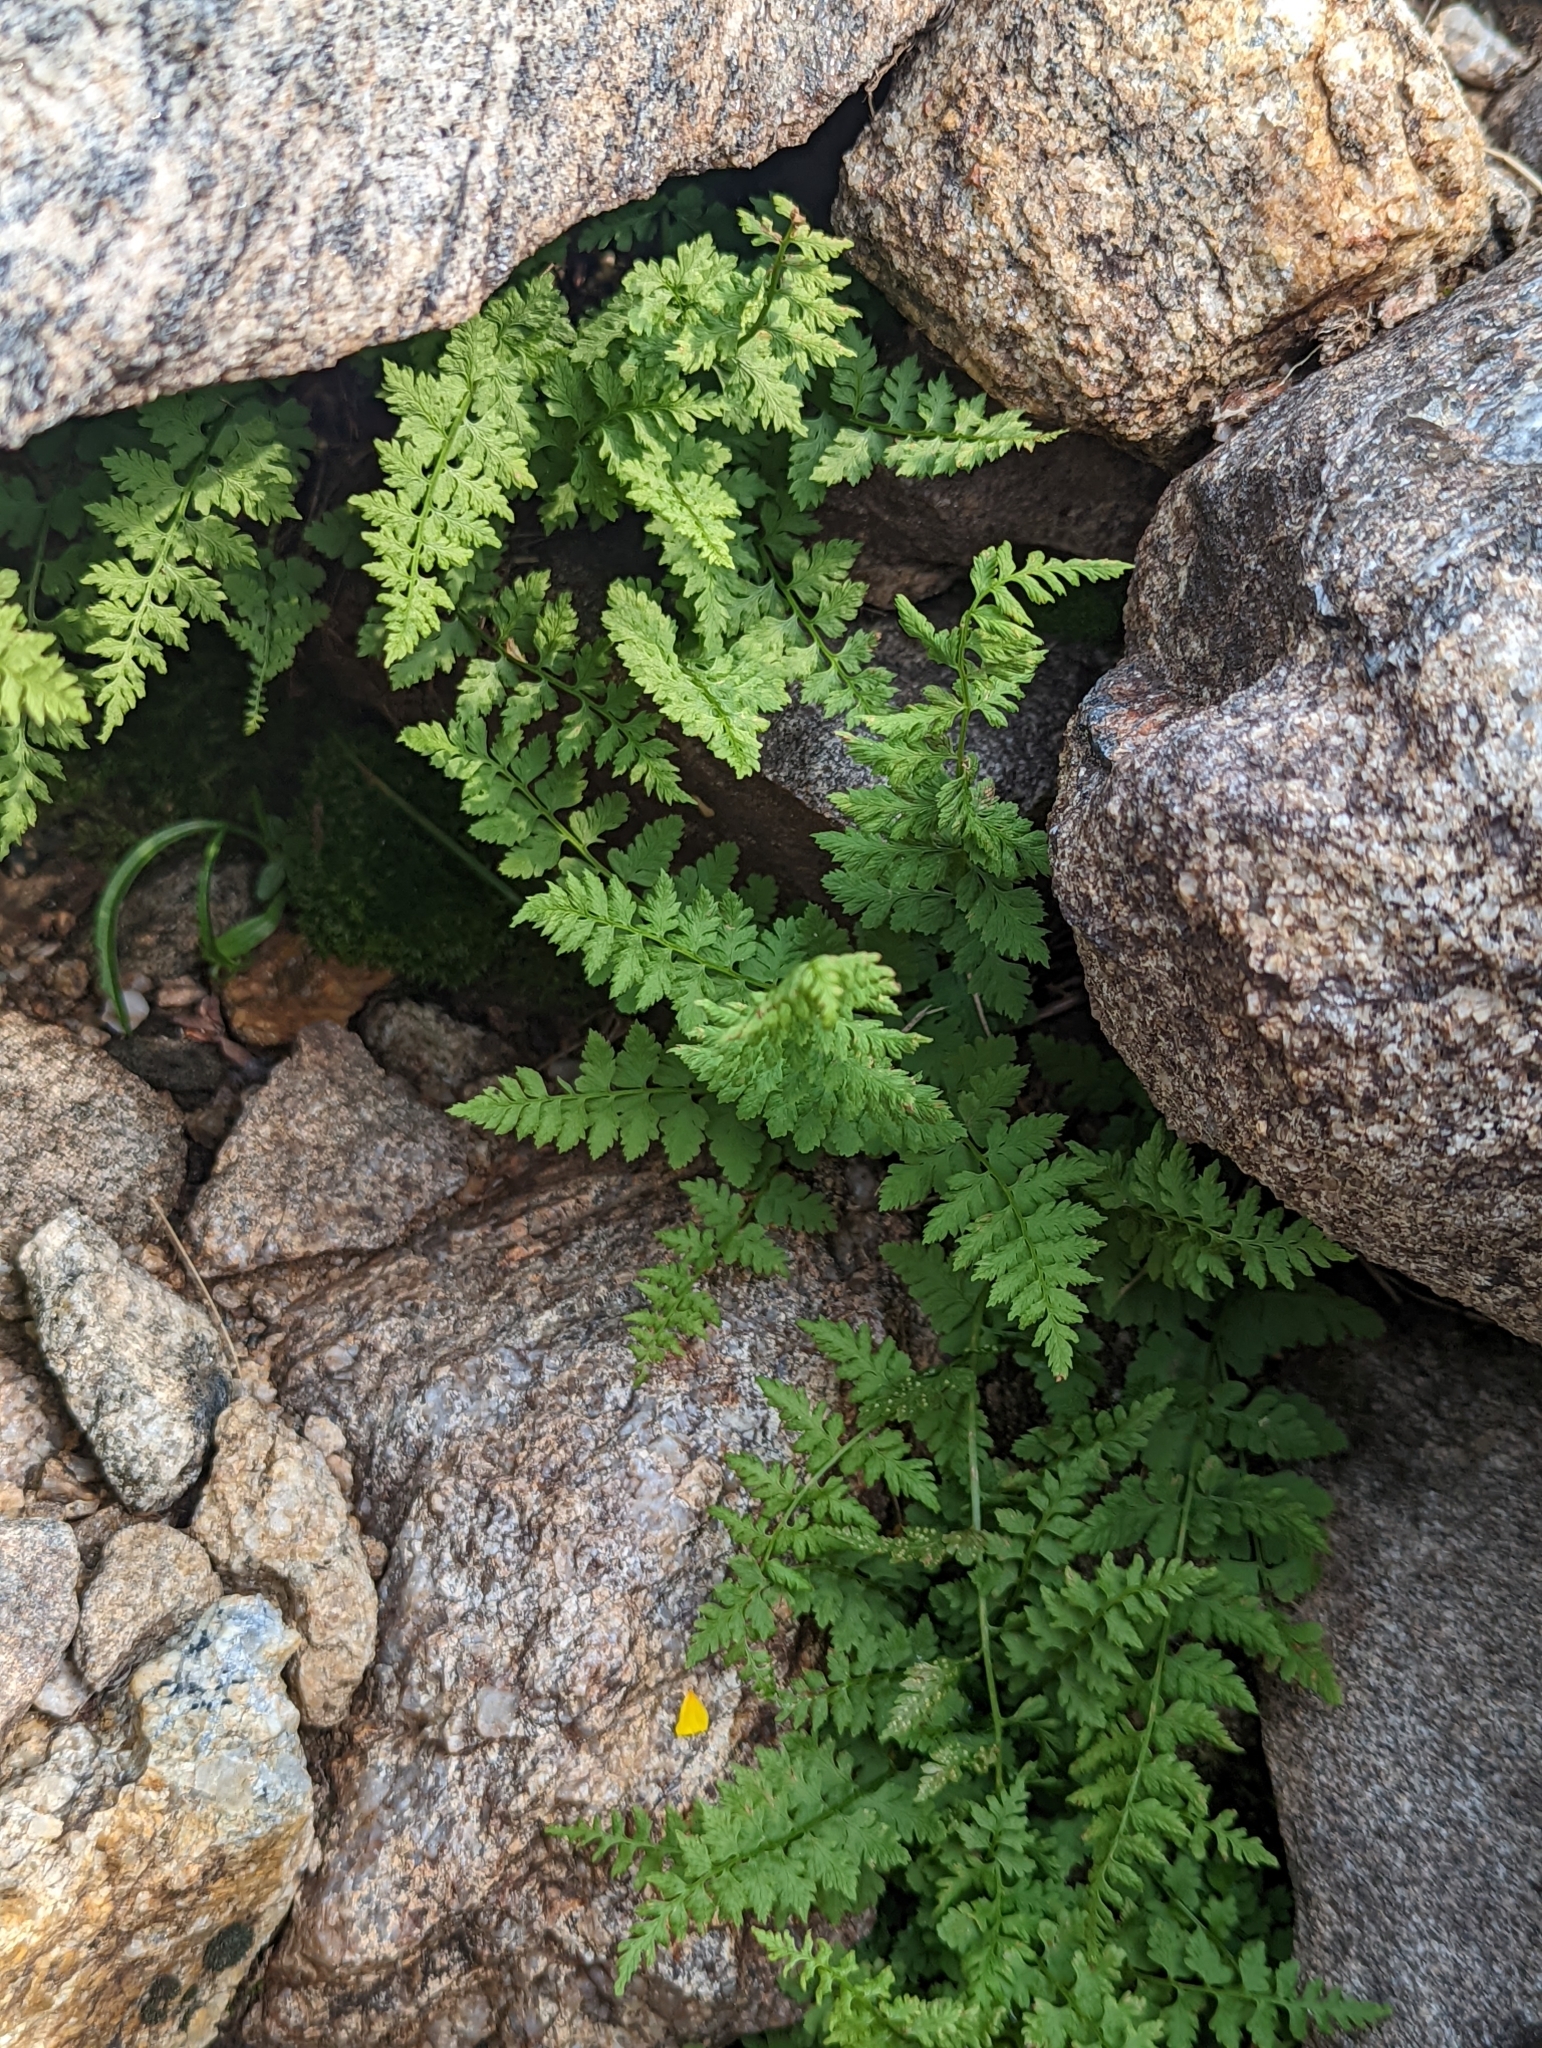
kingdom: Plantae
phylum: Tracheophyta
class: Polypodiopsida
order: Polypodiales
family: Cystopteridaceae
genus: Cystopteris
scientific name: Cystopteris fragilis
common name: Brittle bladder fern
